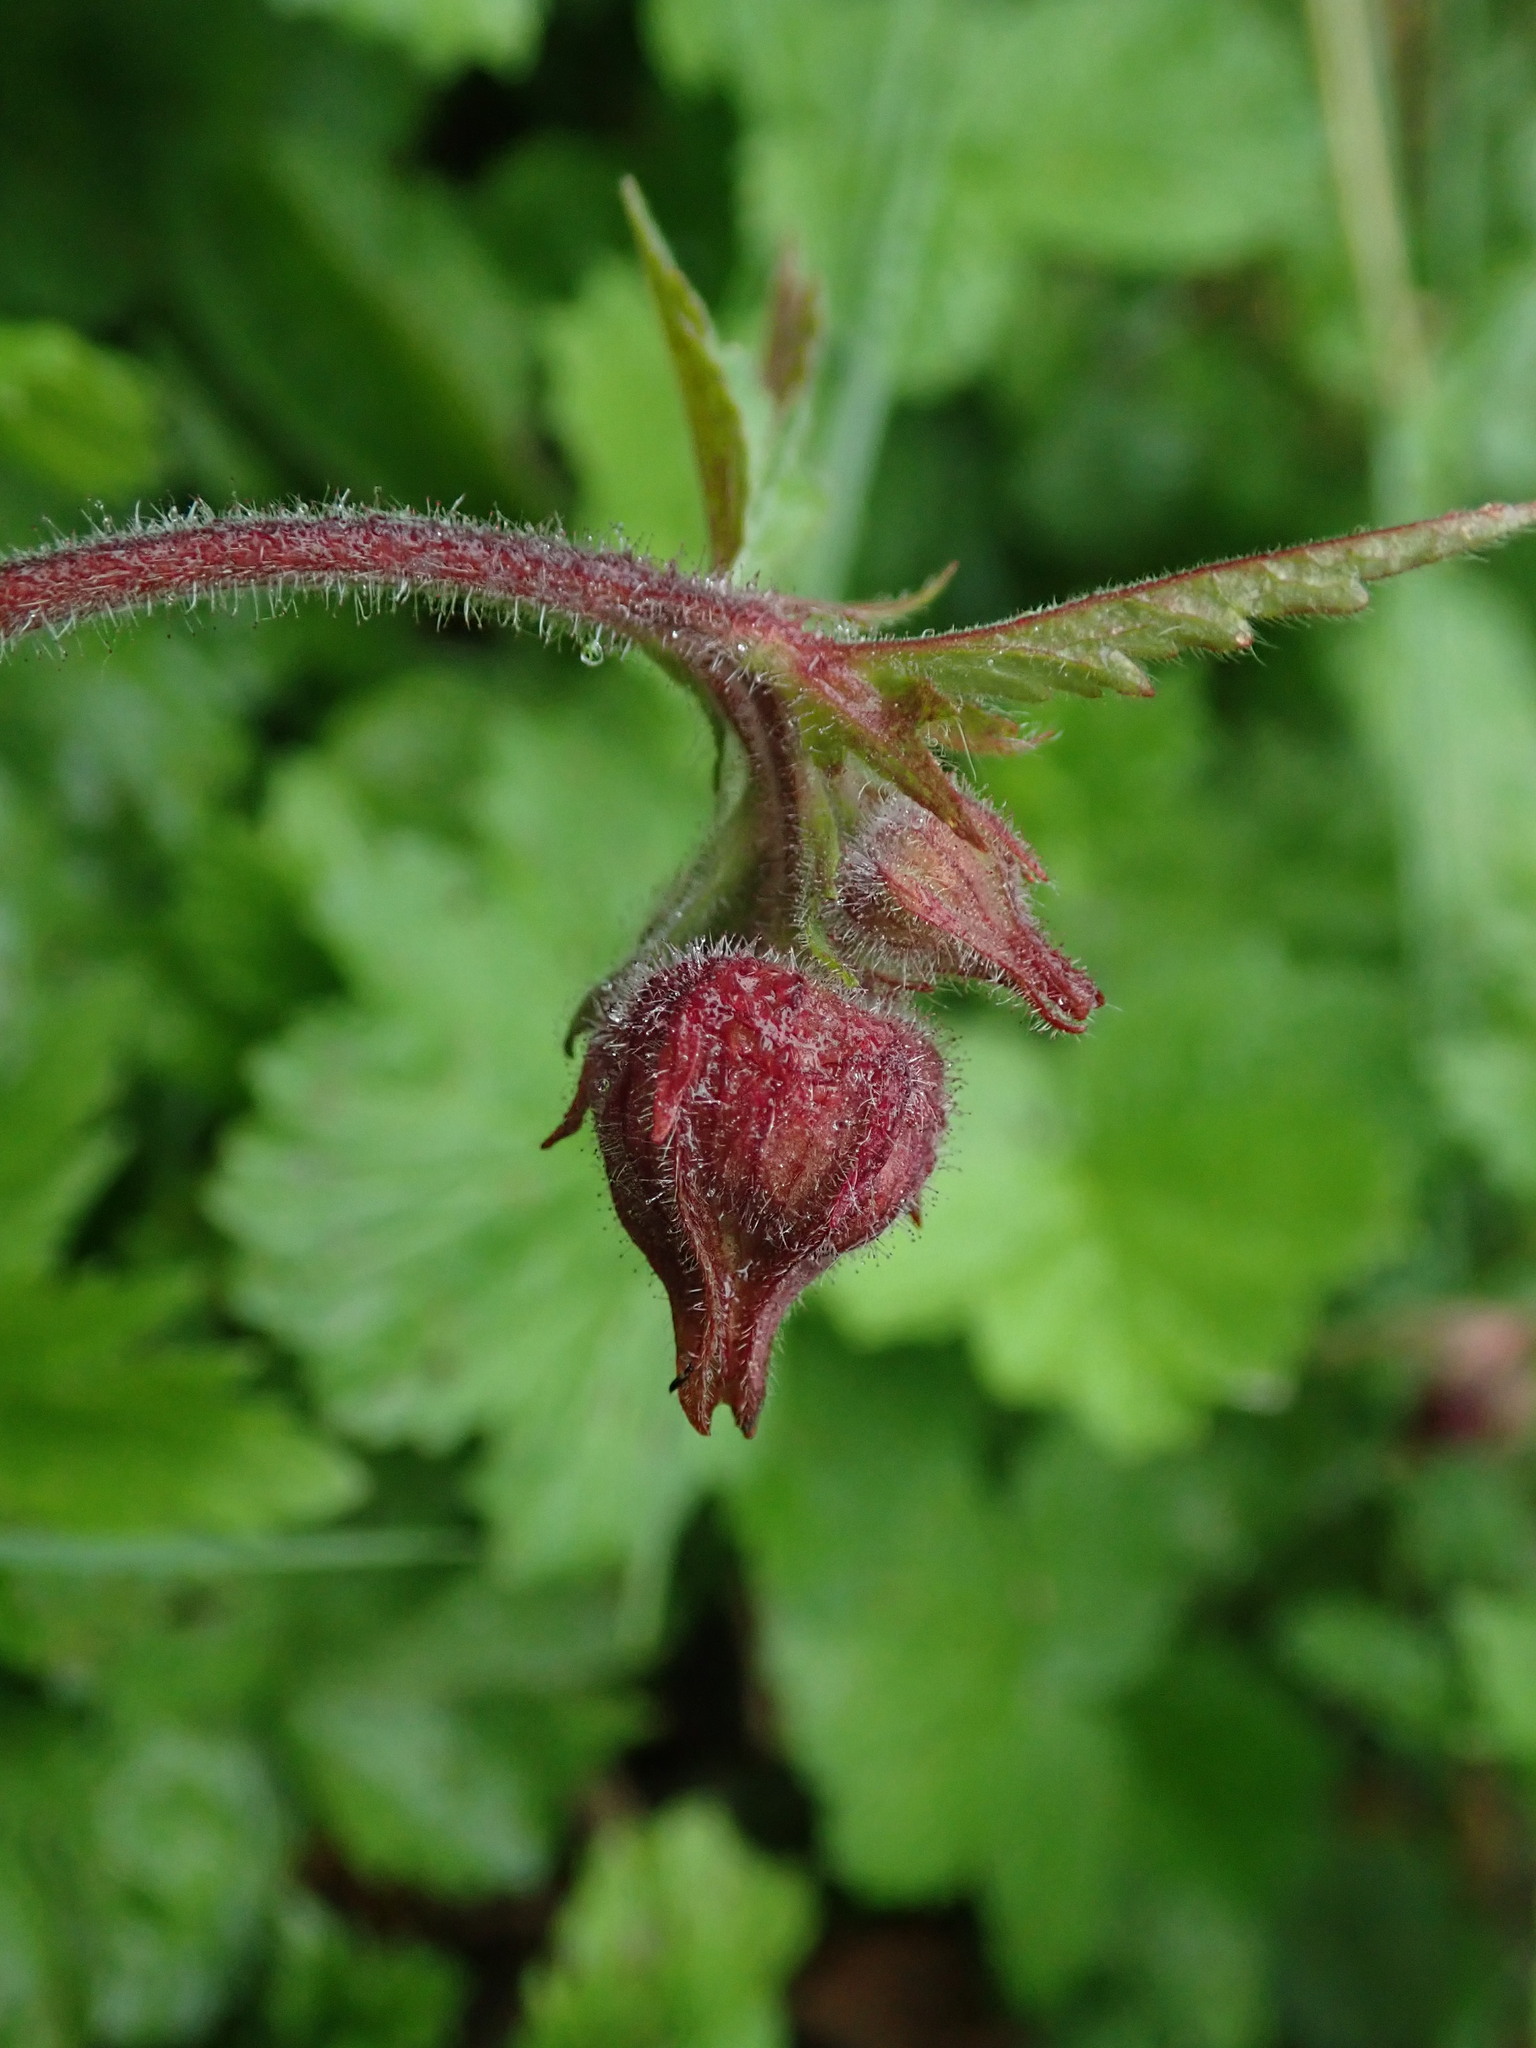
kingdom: Plantae
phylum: Tracheophyta
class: Magnoliopsida
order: Rosales
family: Rosaceae
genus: Geum
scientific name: Geum rivale
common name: Water avens
